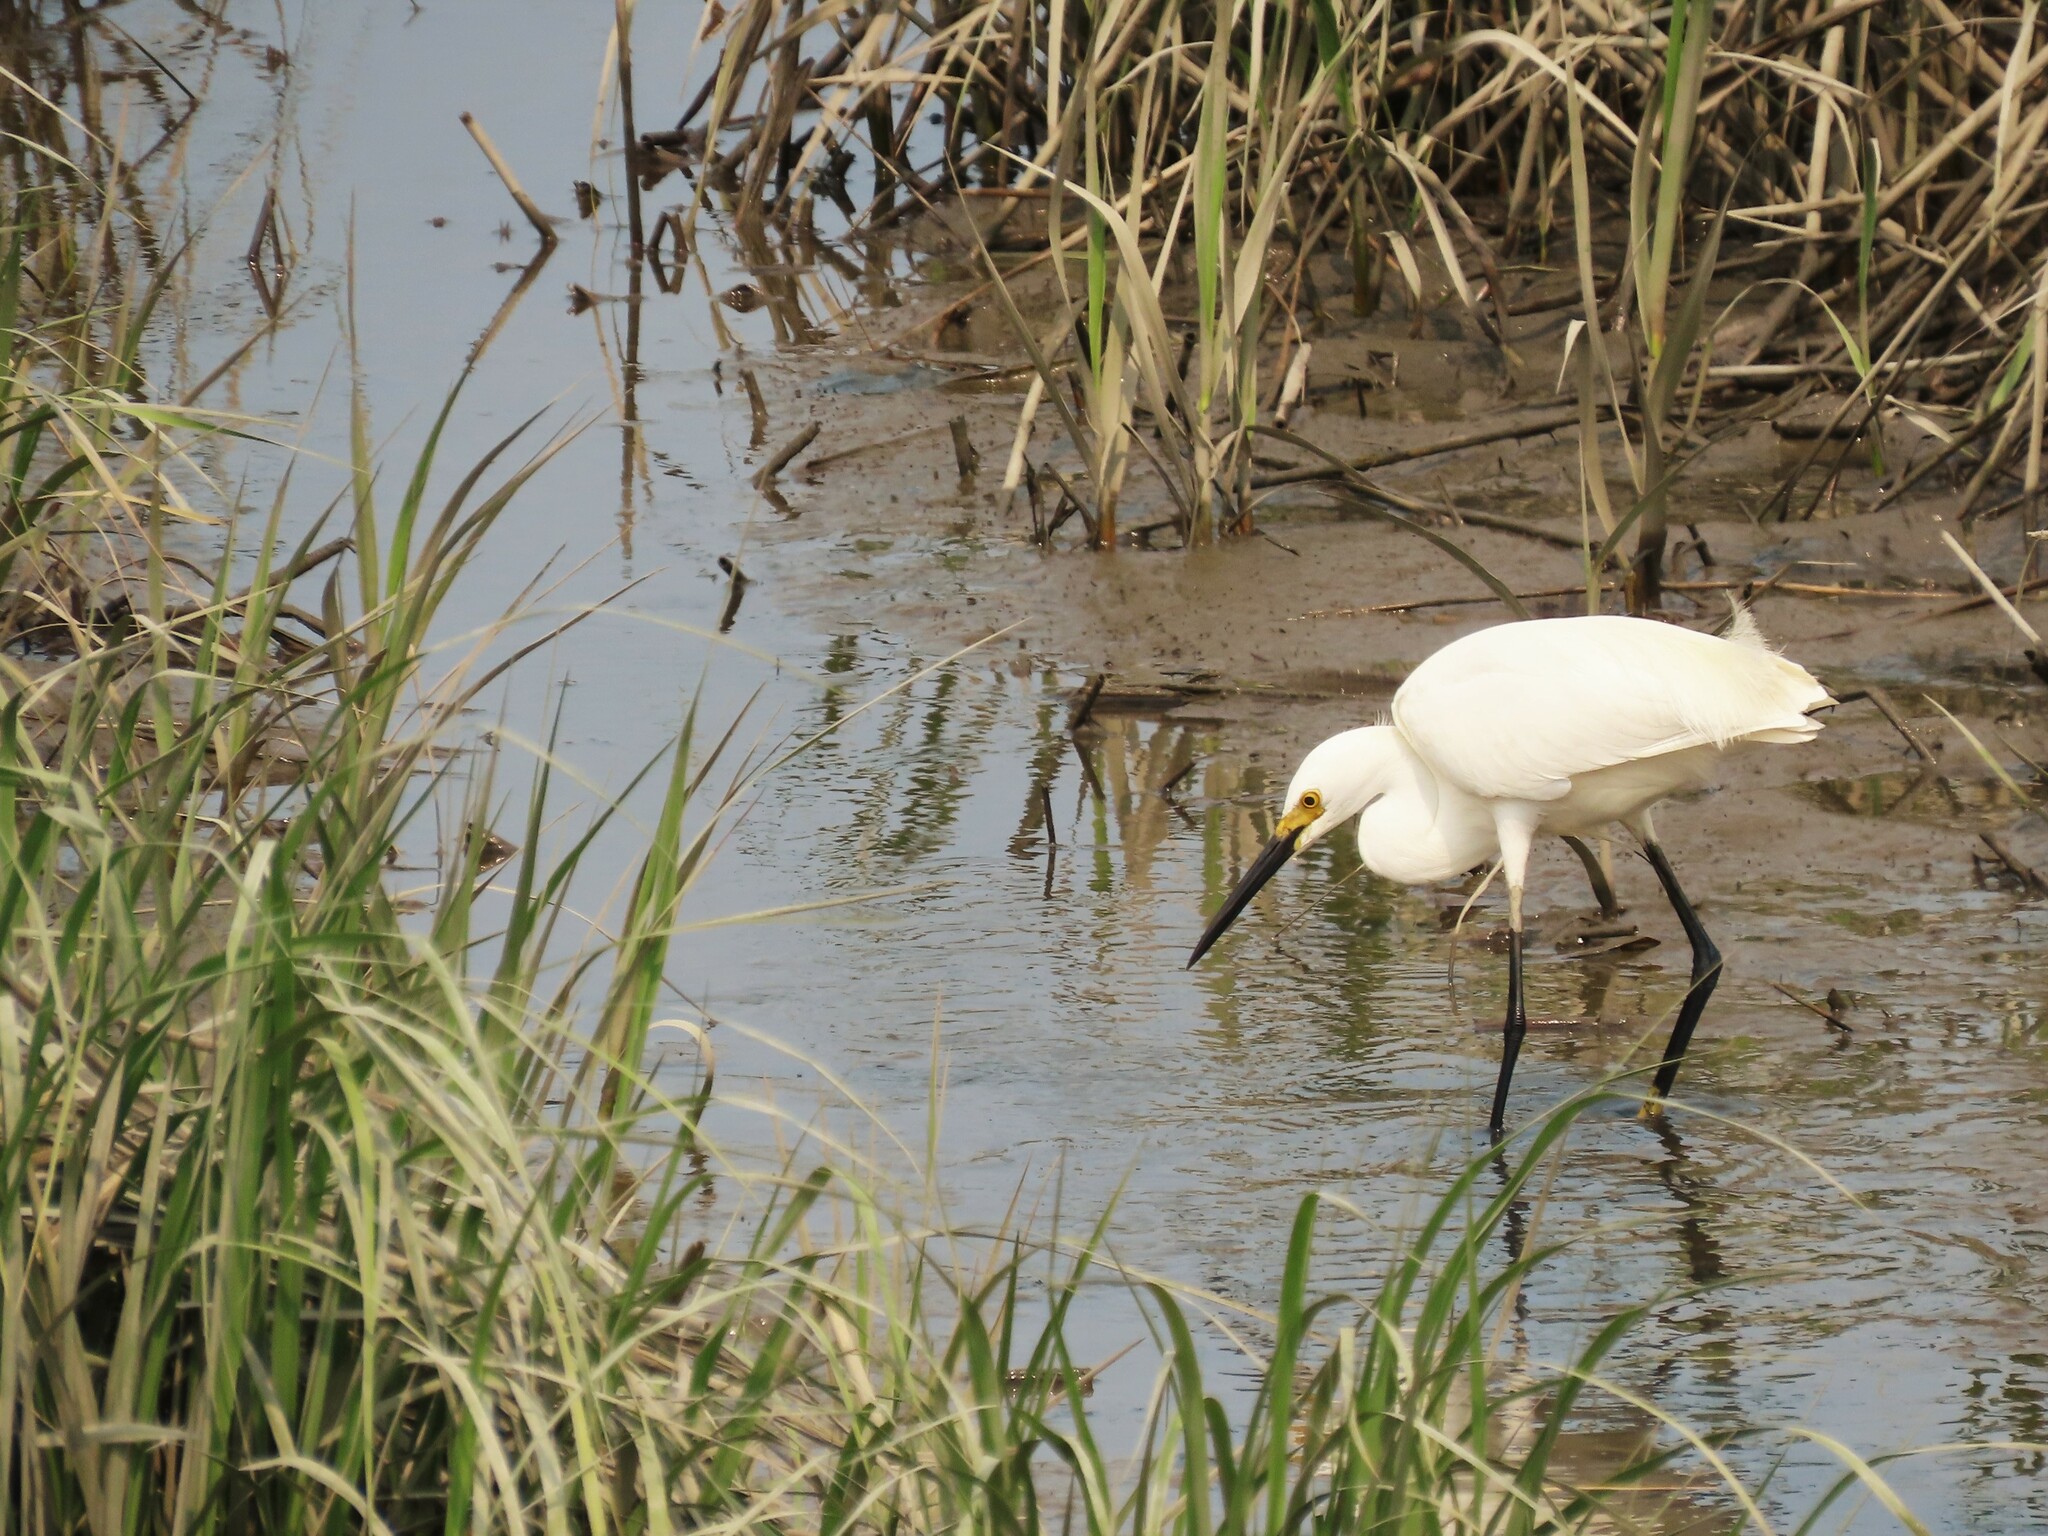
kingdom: Animalia
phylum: Chordata
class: Aves
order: Pelecaniformes
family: Ardeidae
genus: Egretta
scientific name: Egretta thula
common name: Snowy egret
